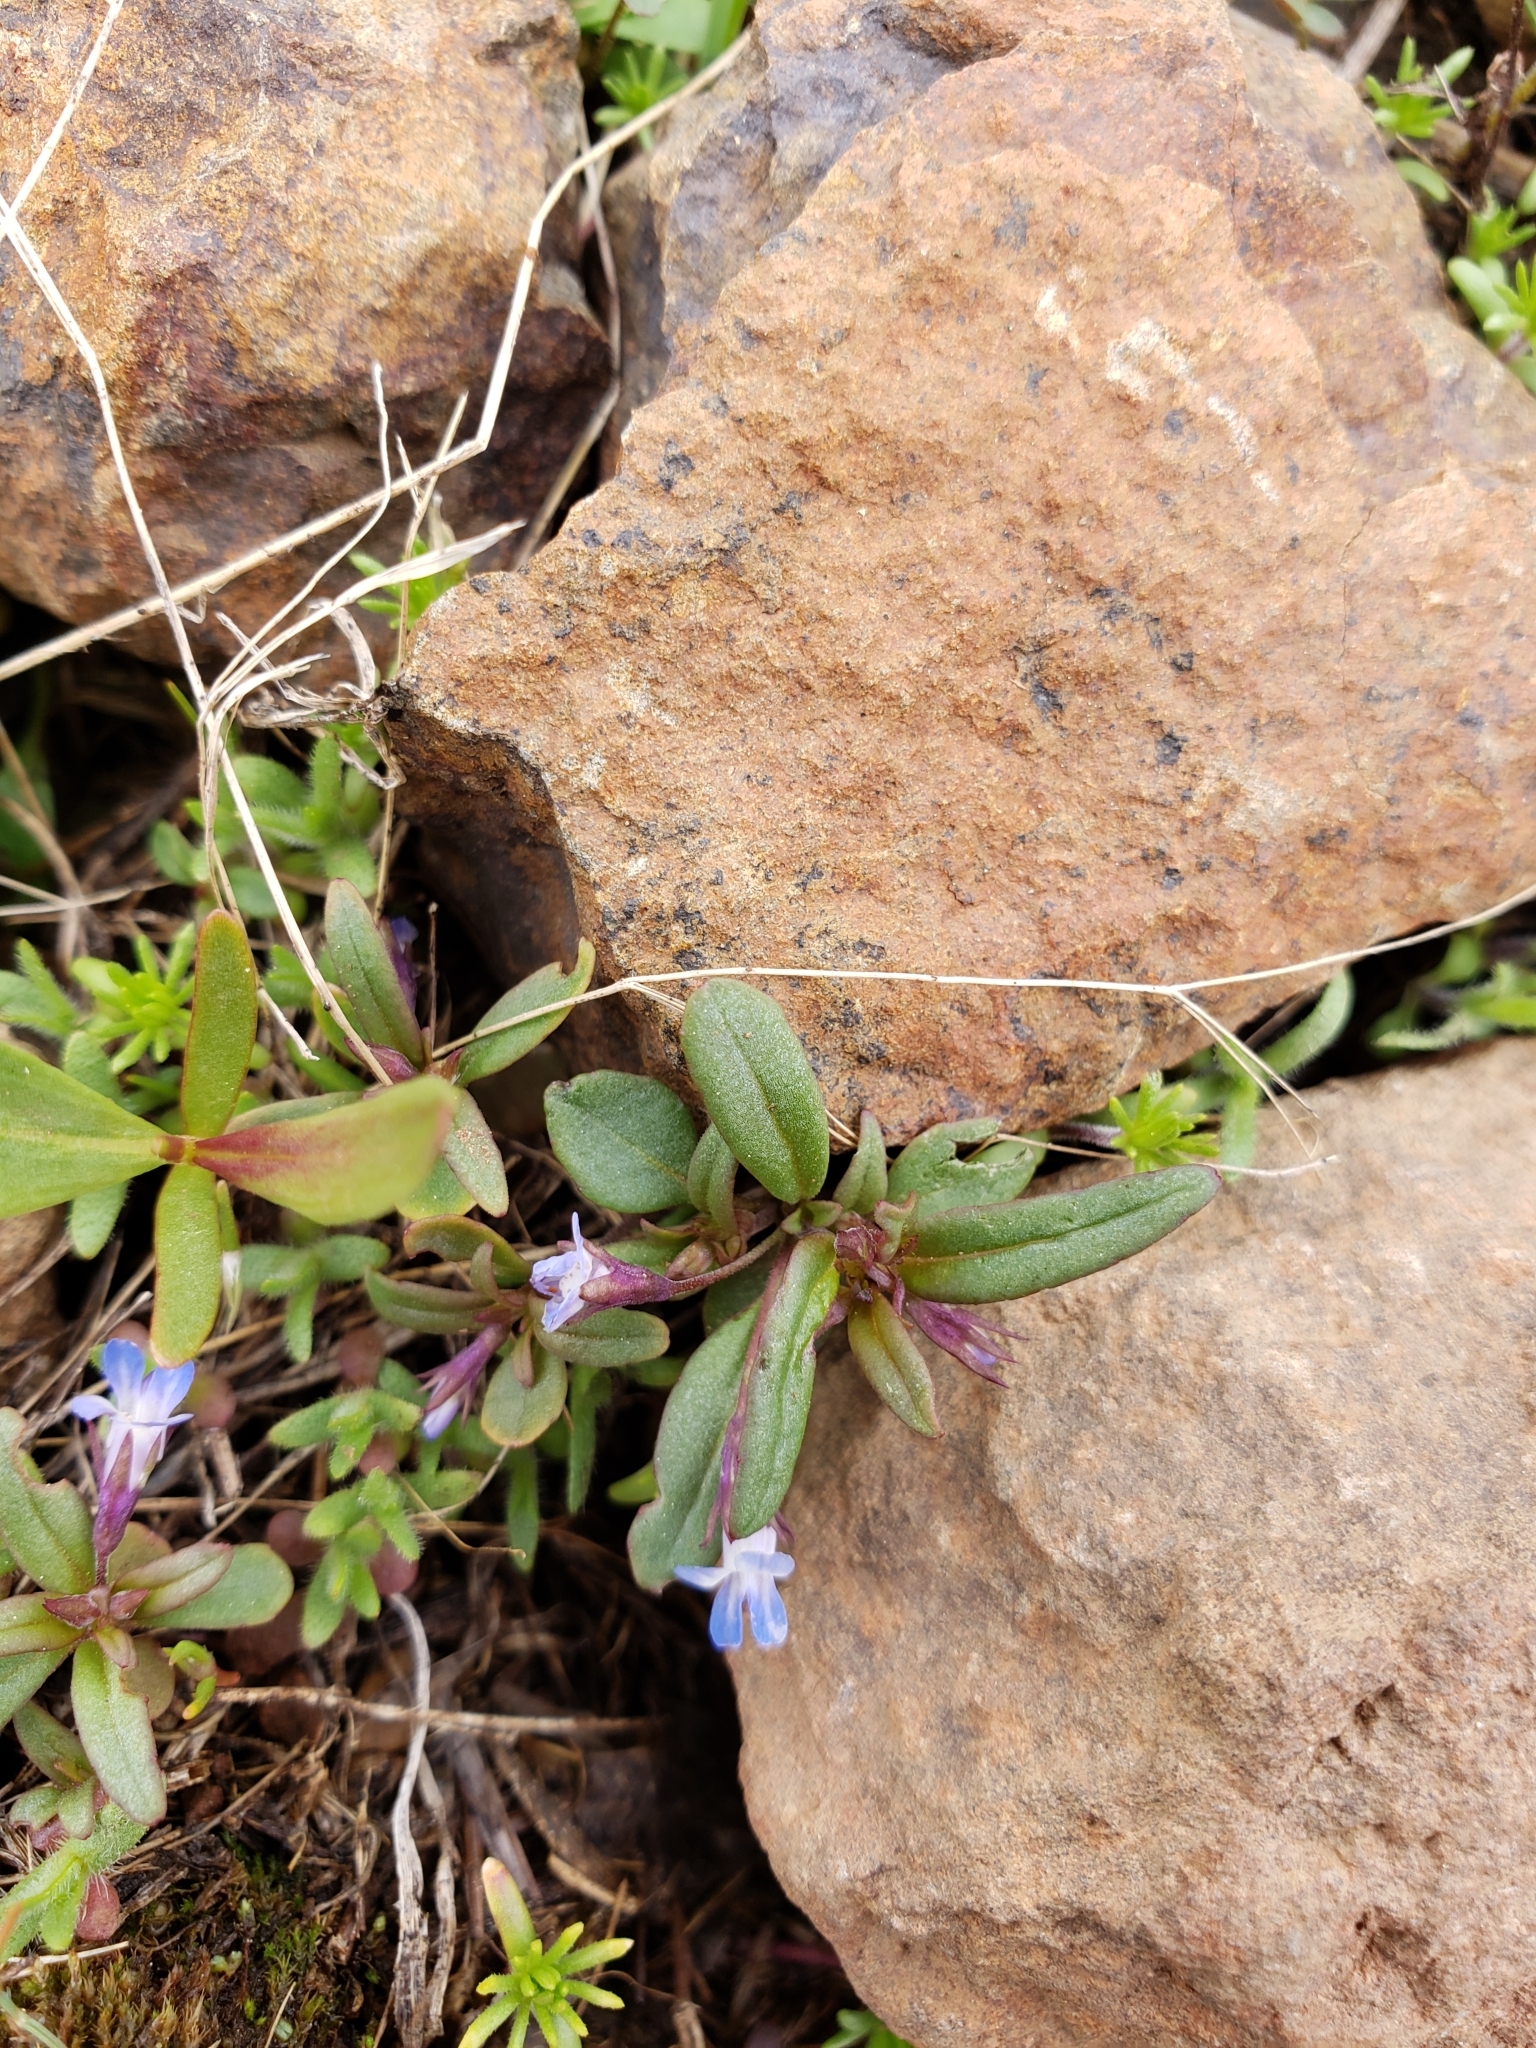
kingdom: Plantae
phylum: Tracheophyta
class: Magnoliopsida
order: Lamiales
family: Plantaginaceae
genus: Collinsia
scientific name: Collinsia parviflora
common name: Blue-lips
